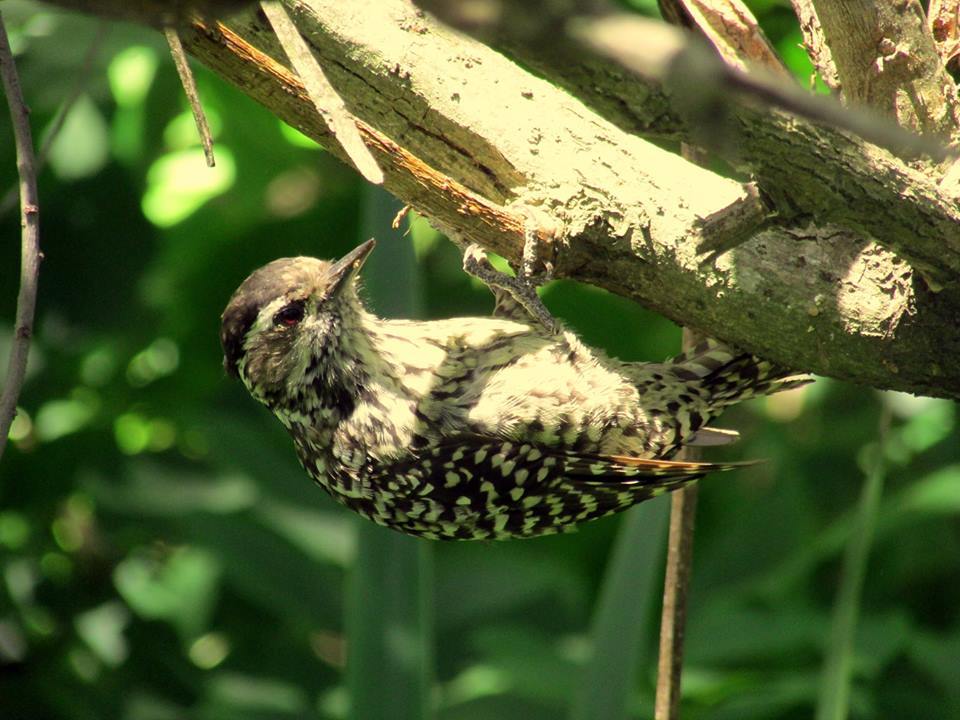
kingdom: Animalia
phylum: Chordata
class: Aves
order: Piciformes
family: Picidae
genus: Veniliornis
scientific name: Veniliornis mixtus
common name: Checkered woodpecker
